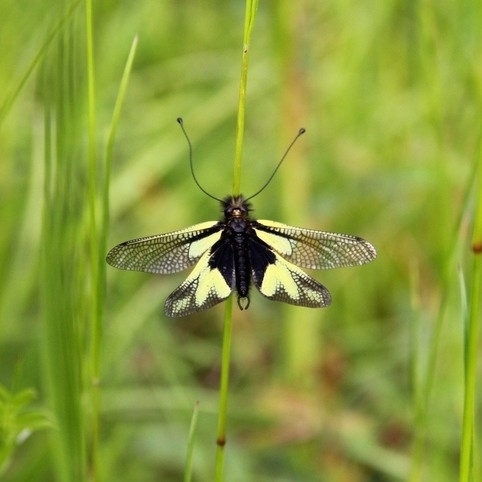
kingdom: Animalia
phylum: Arthropoda
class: Insecta
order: Neuroptera
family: Ascalaphidae
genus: Libelloides
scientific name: Libelloides coccajus
